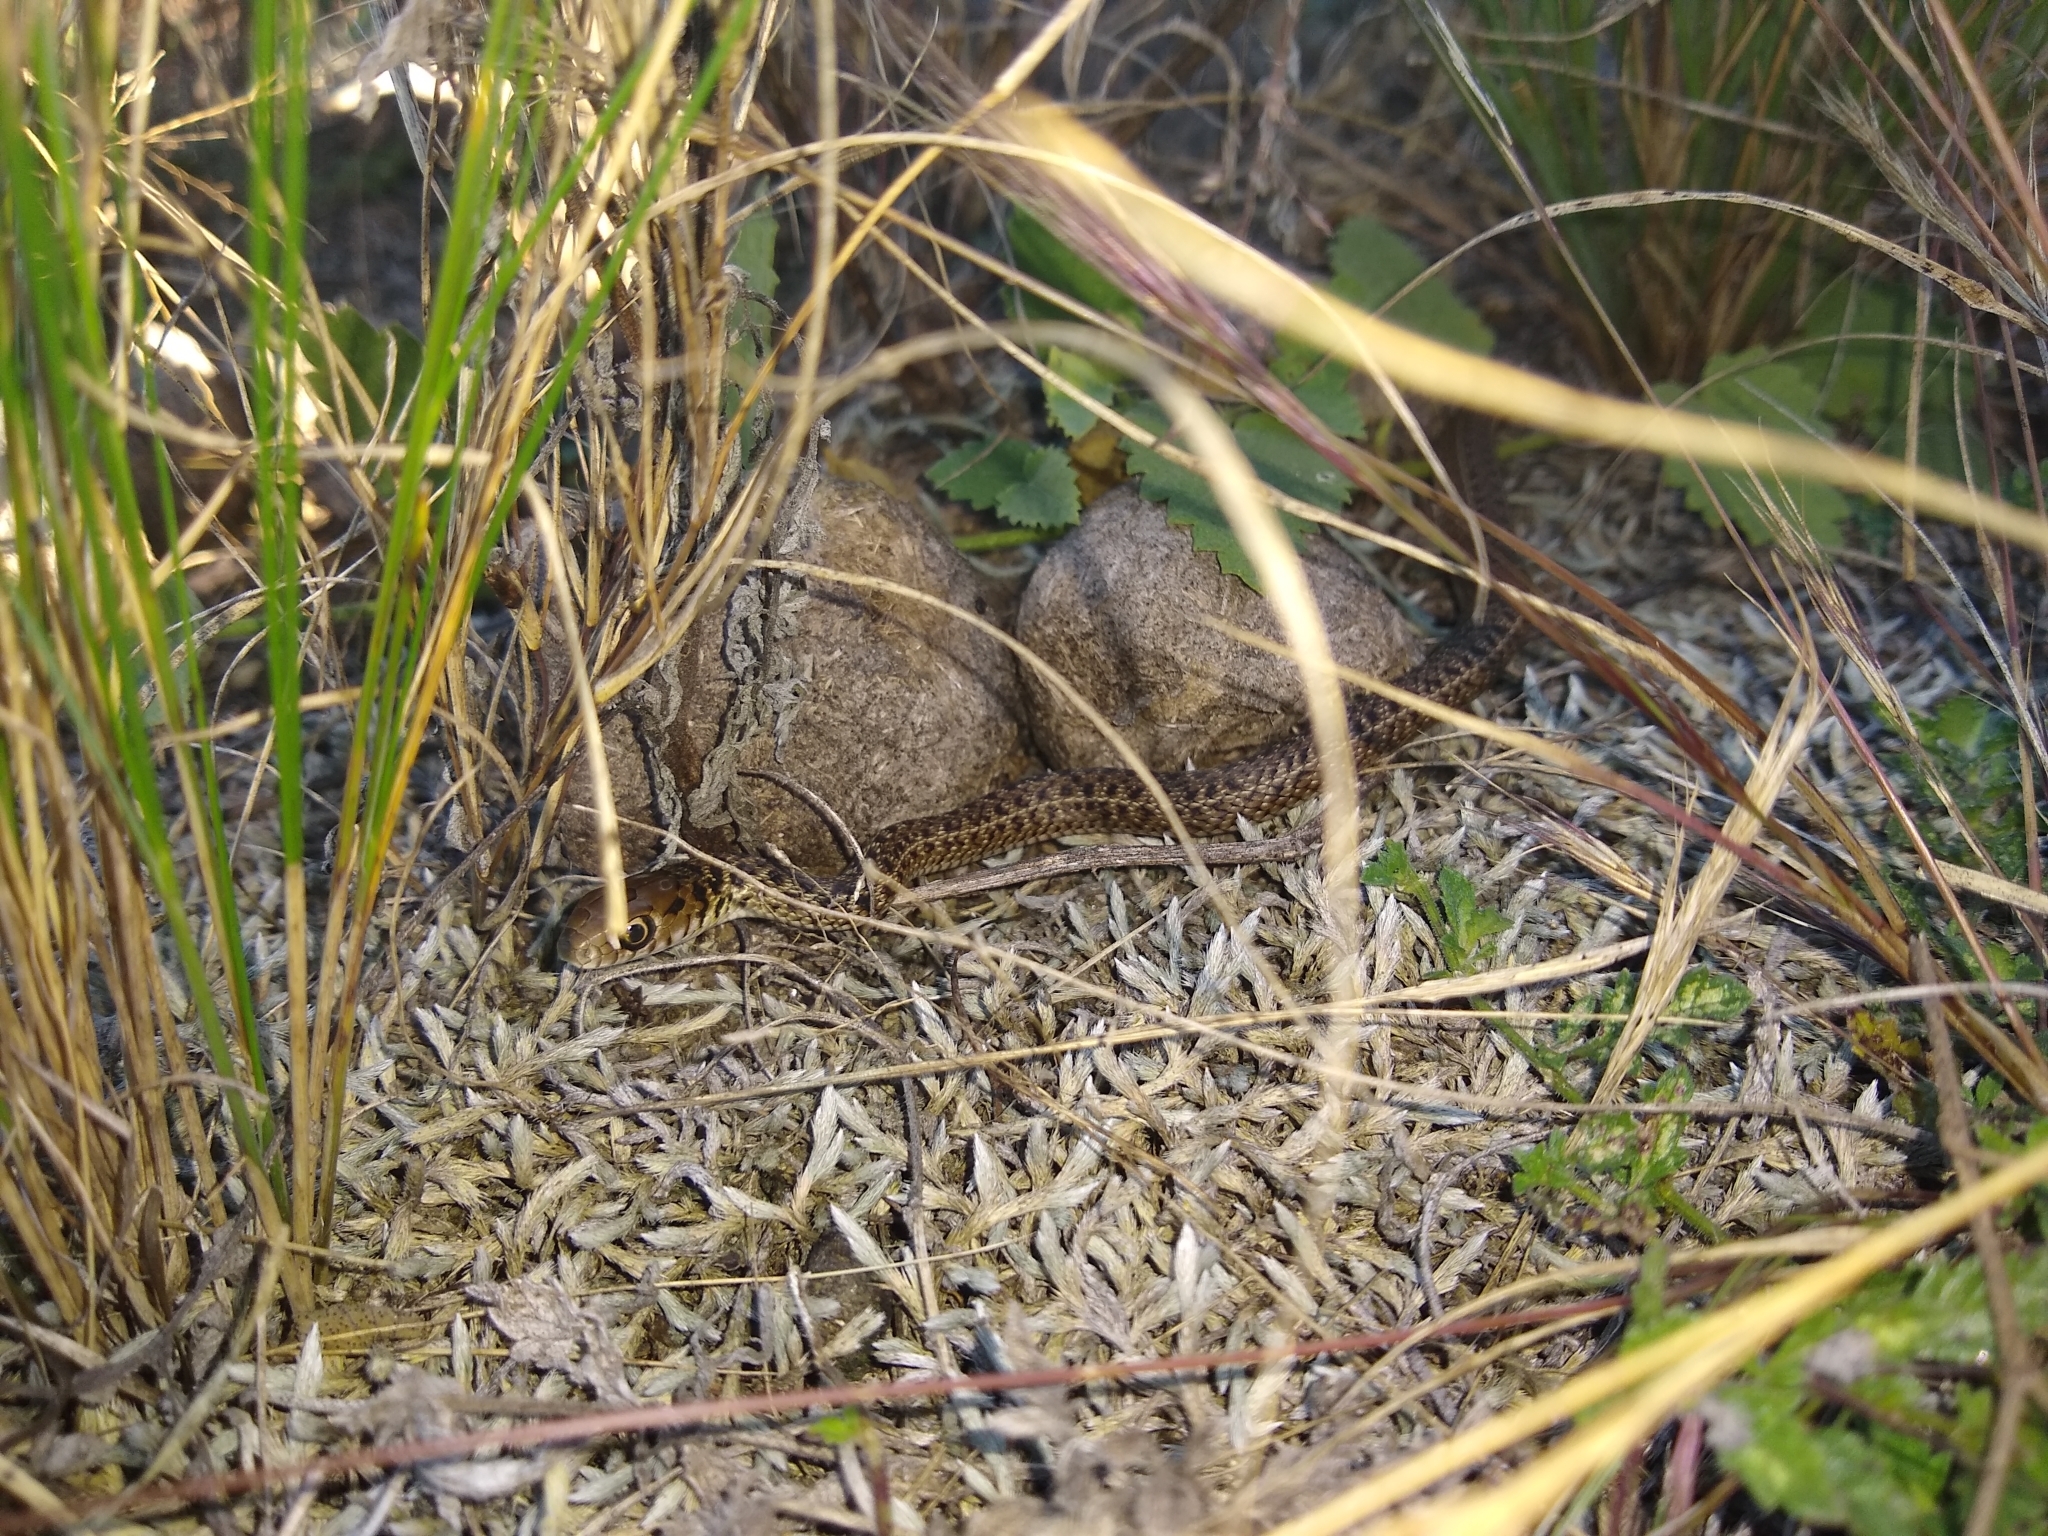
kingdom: Animalia
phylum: Chordata
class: Squamata
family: Colubridae
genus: Philodryas
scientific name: Philodryas patagoniensis
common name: Patagonia green racer
